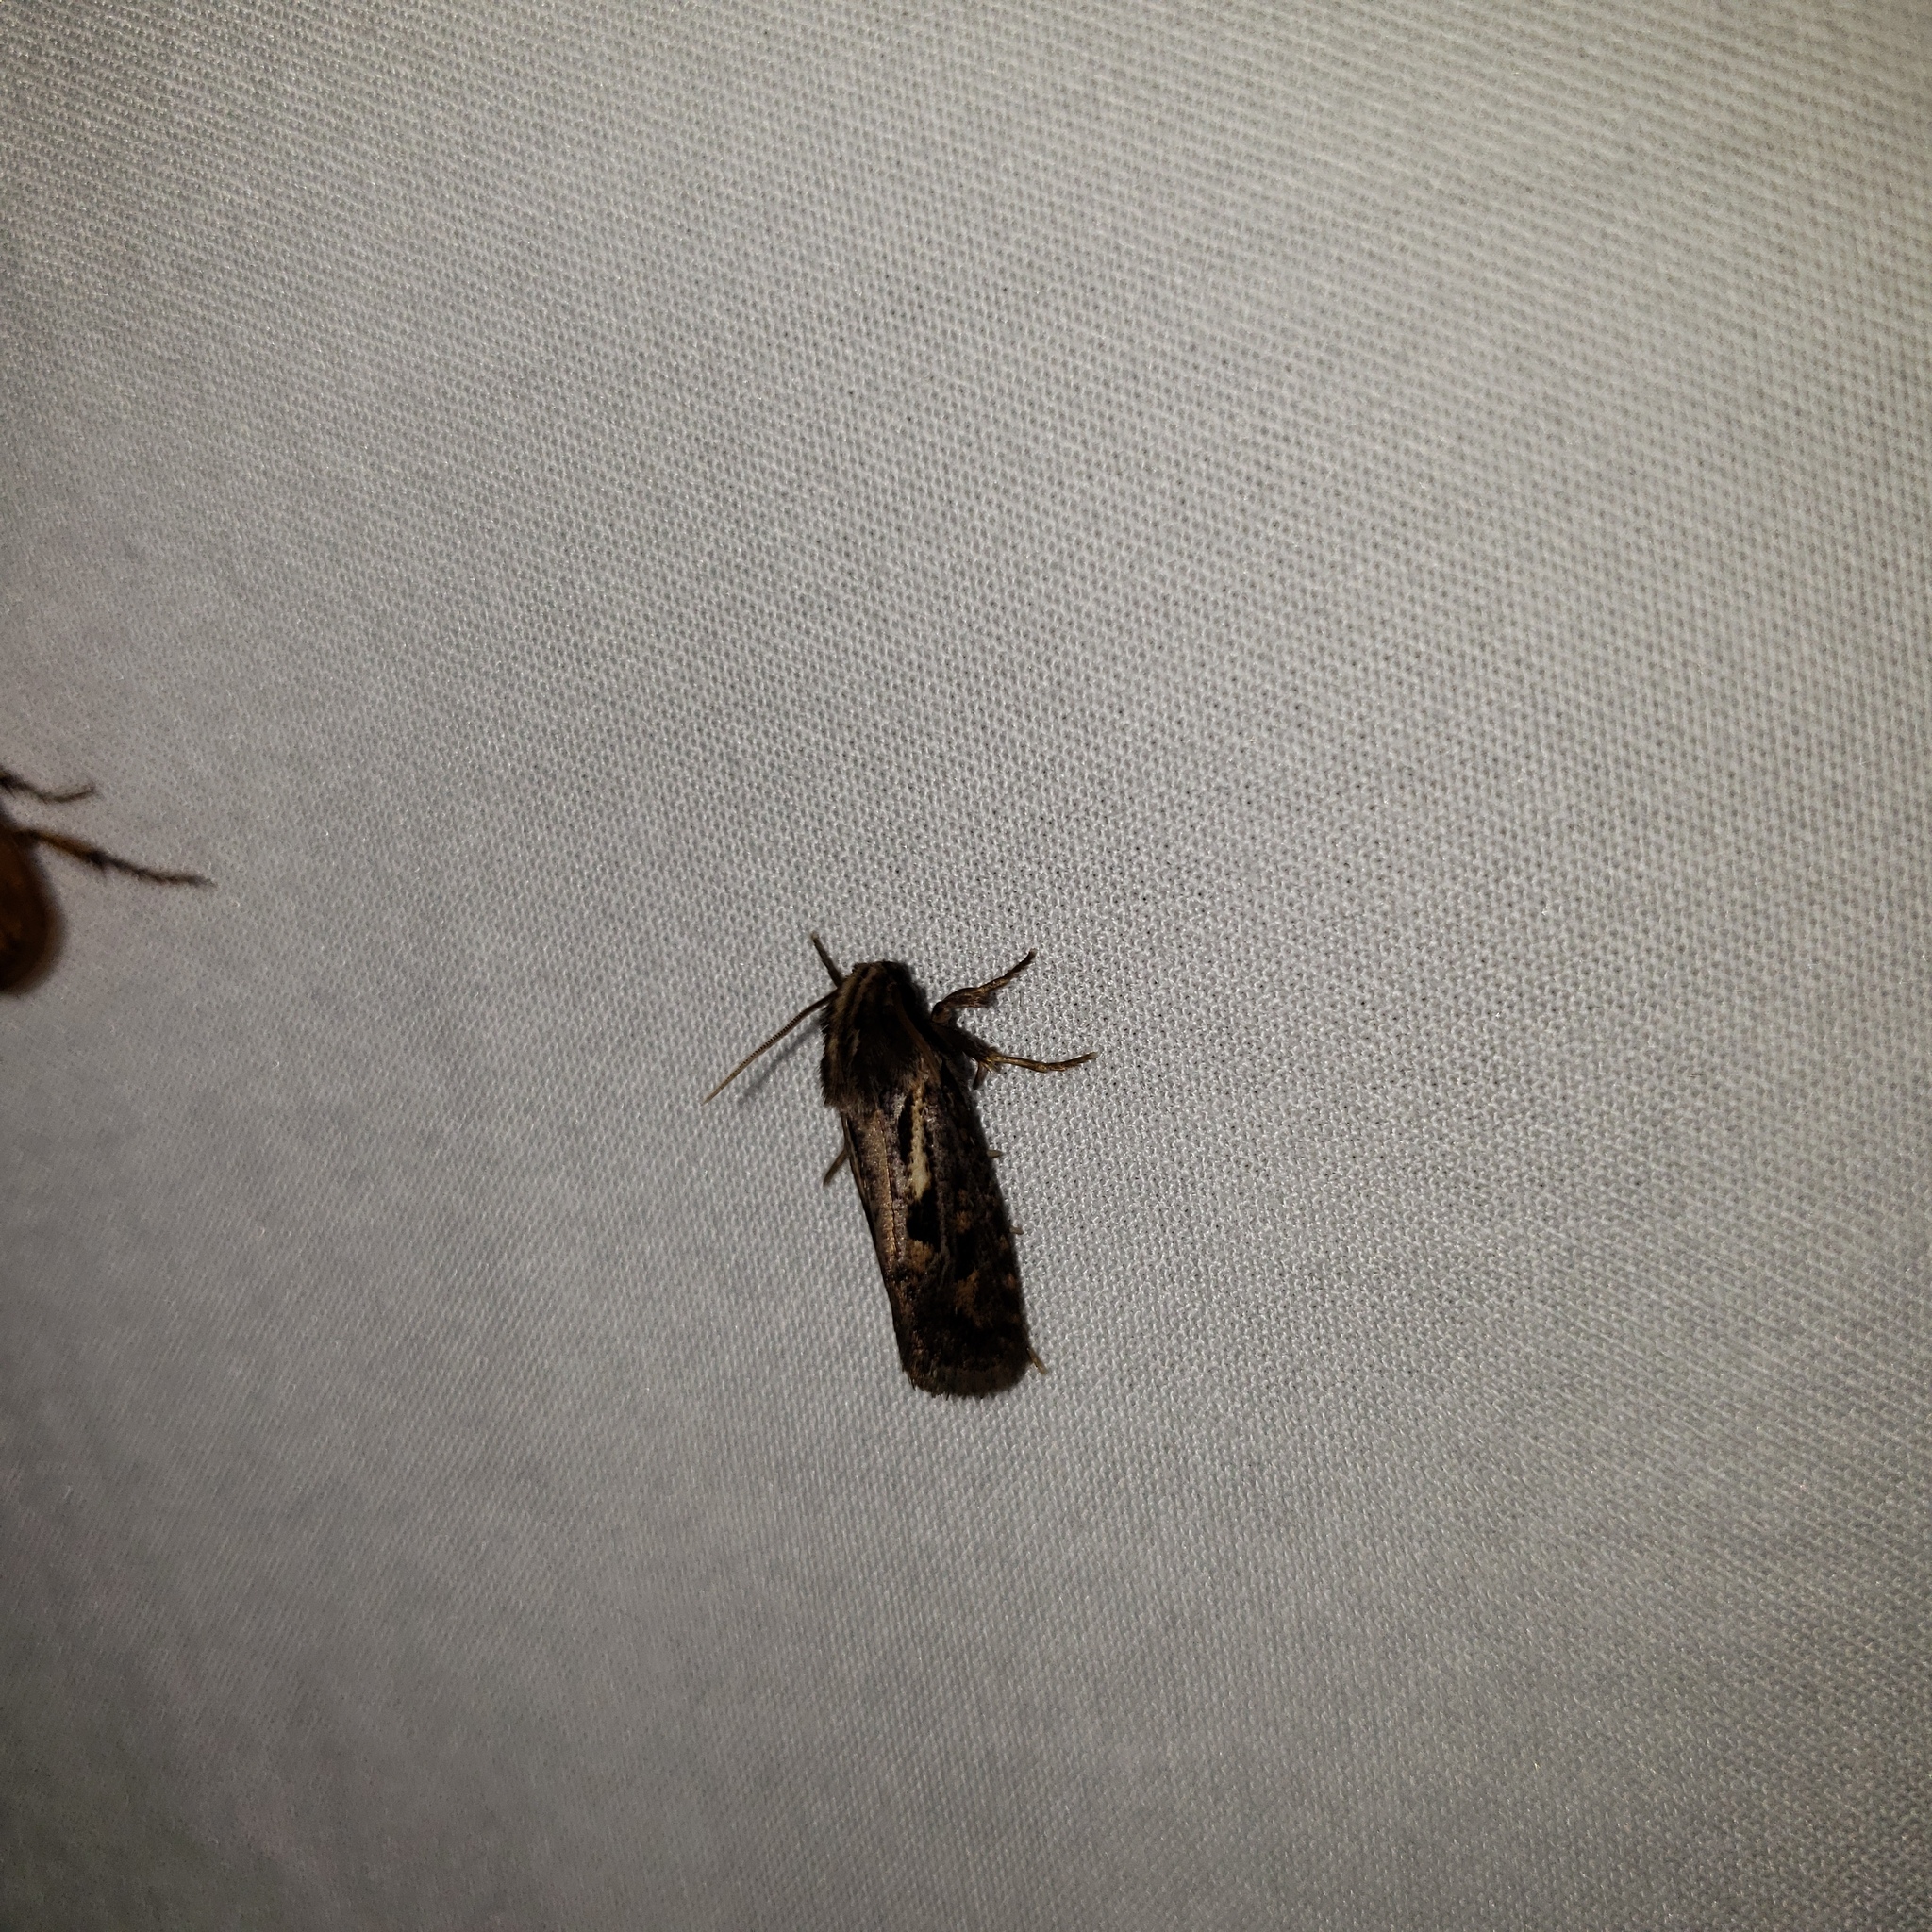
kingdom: Animalia
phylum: Arthropoda
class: Insecta
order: Lepidoptera
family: Tineidae
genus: Acrolophus
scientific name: Acrolophus popeanella
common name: Clemens' grass tubeworm moth
